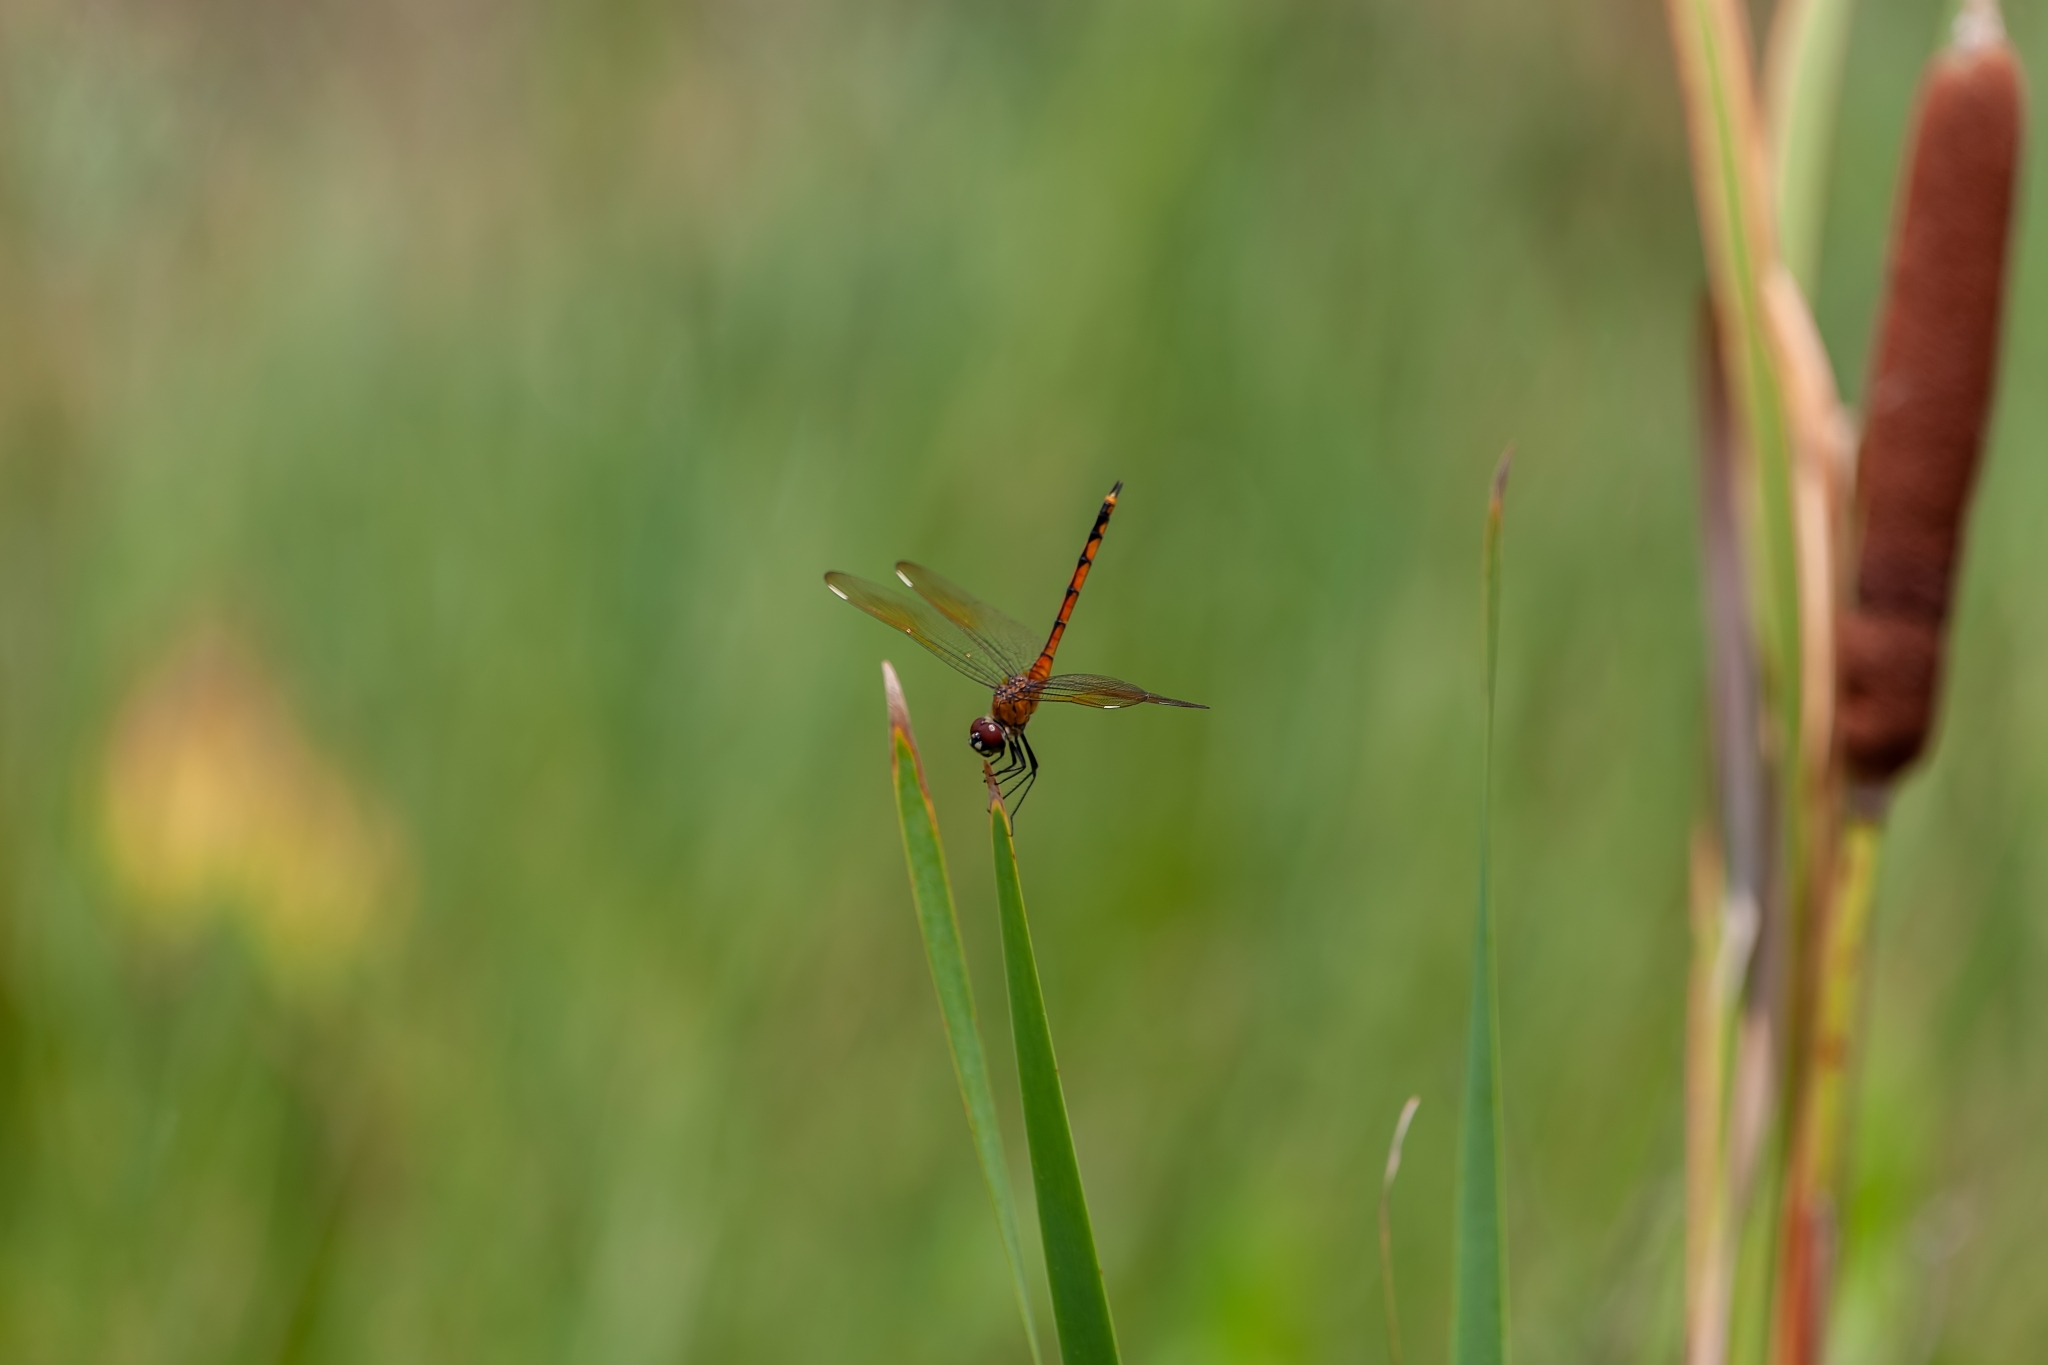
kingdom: Animalia
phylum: Arthropoda
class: Insecta
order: Odonata
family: Libellulidae
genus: Brachymesia
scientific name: Brachymesia gravida
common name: Four-spotted pennant
